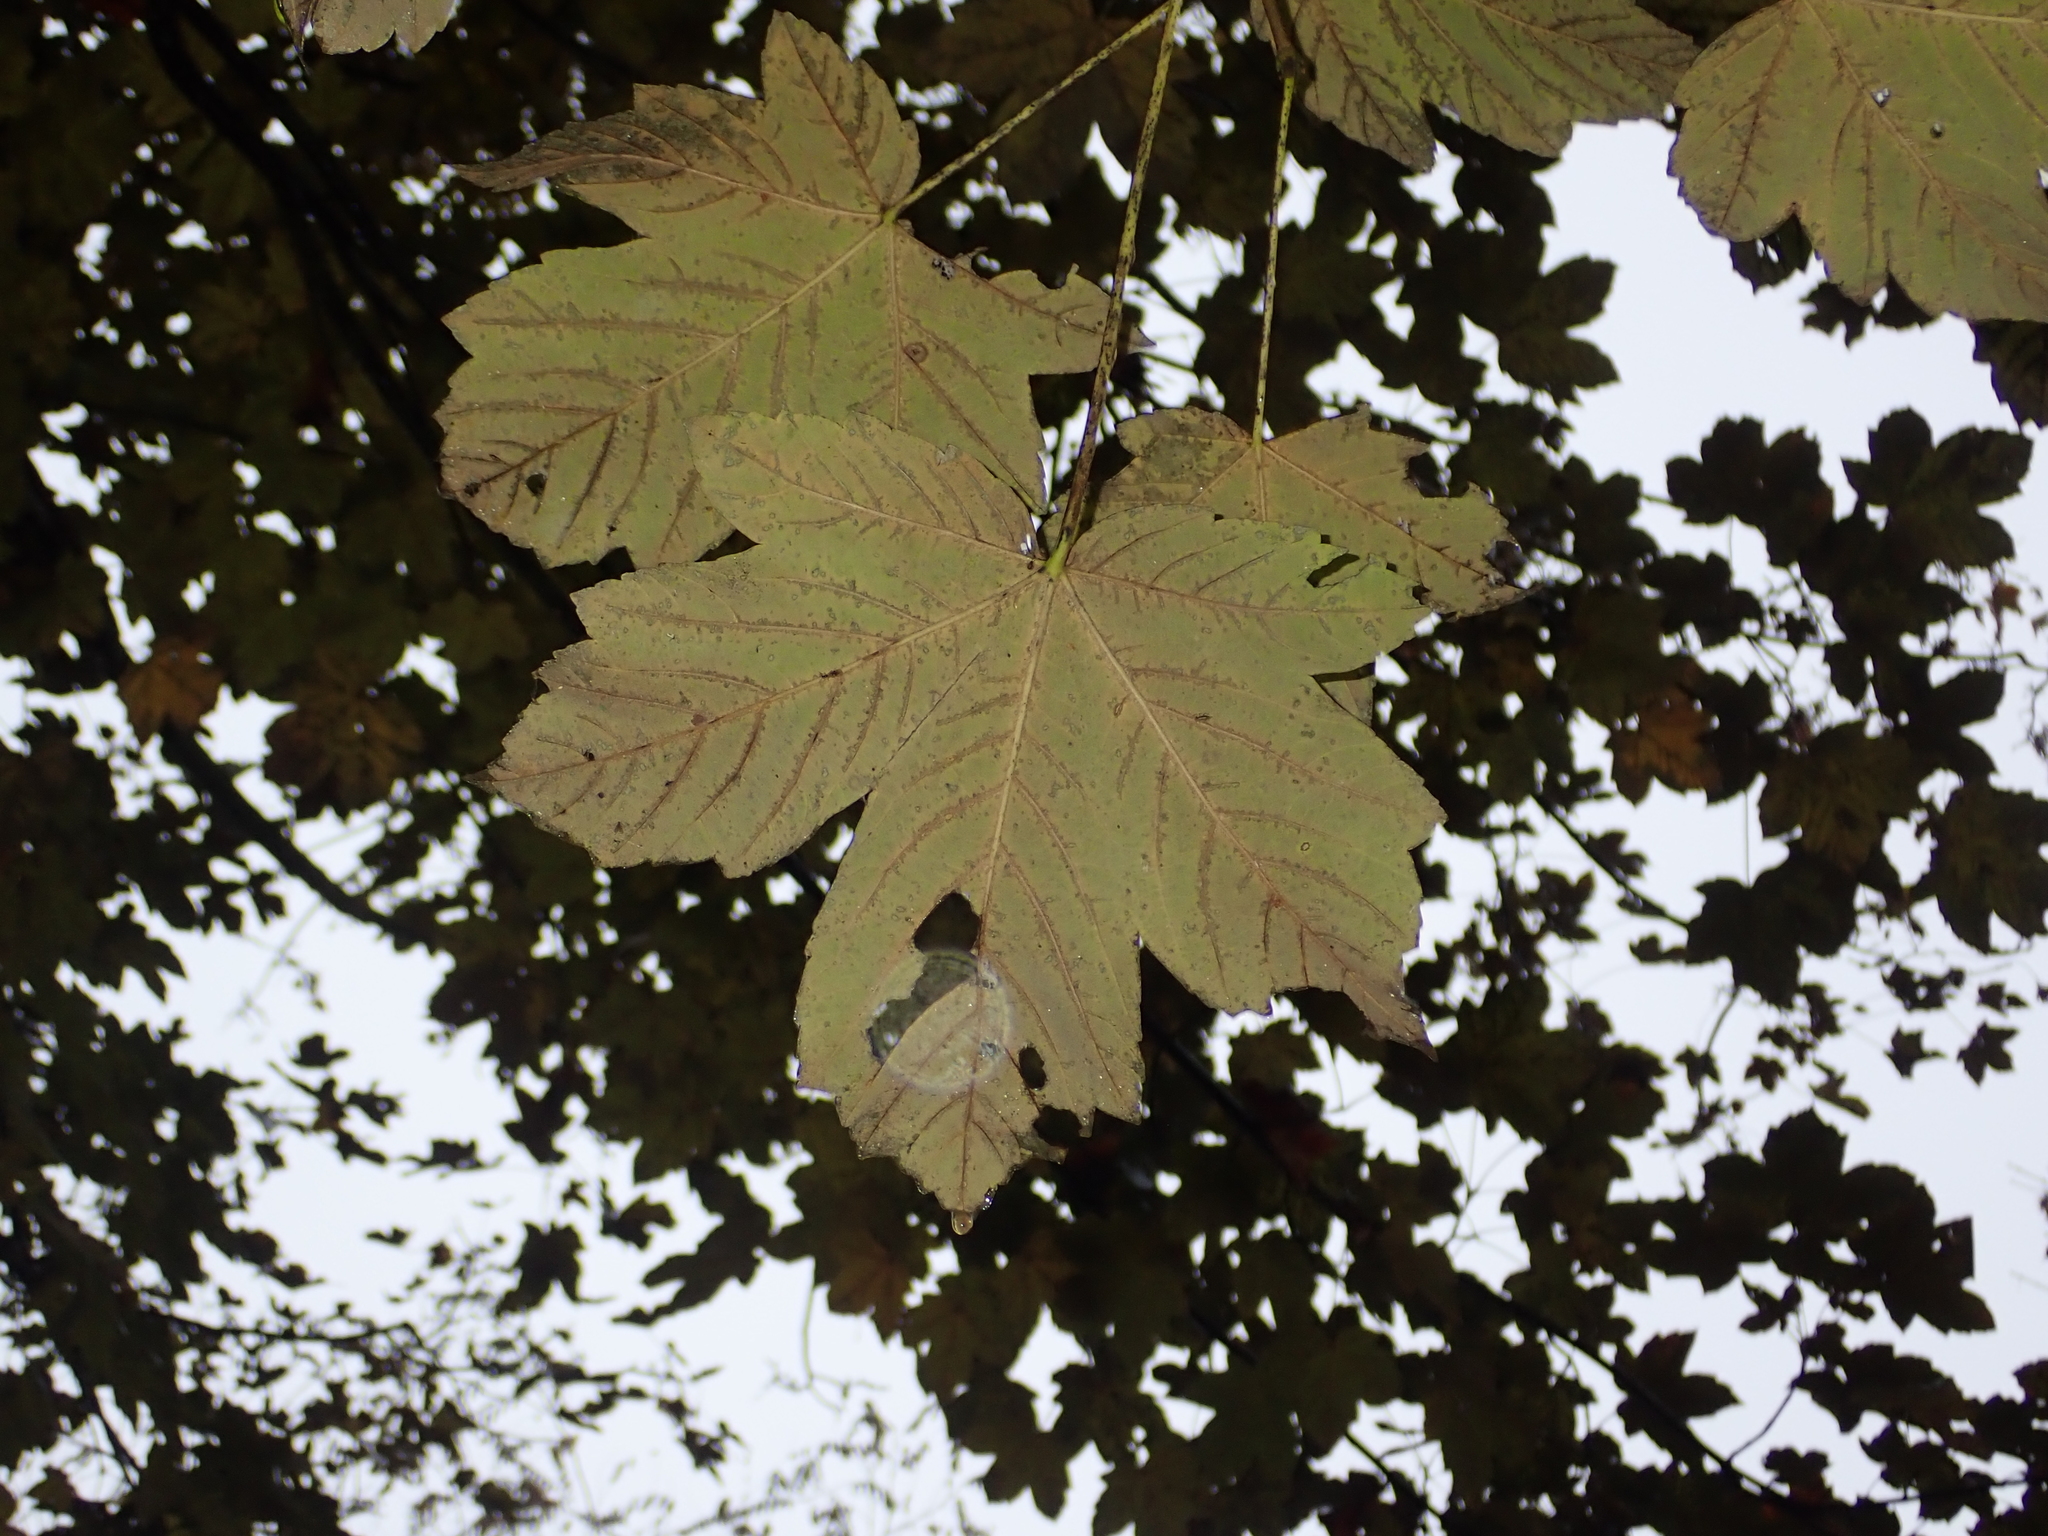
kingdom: Plantae
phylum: Tracheophyta
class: Magnoliopsida
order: Sapindales
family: Sapindaceae
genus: Acer
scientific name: Acer pseudoplatanus
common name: Sycamore
